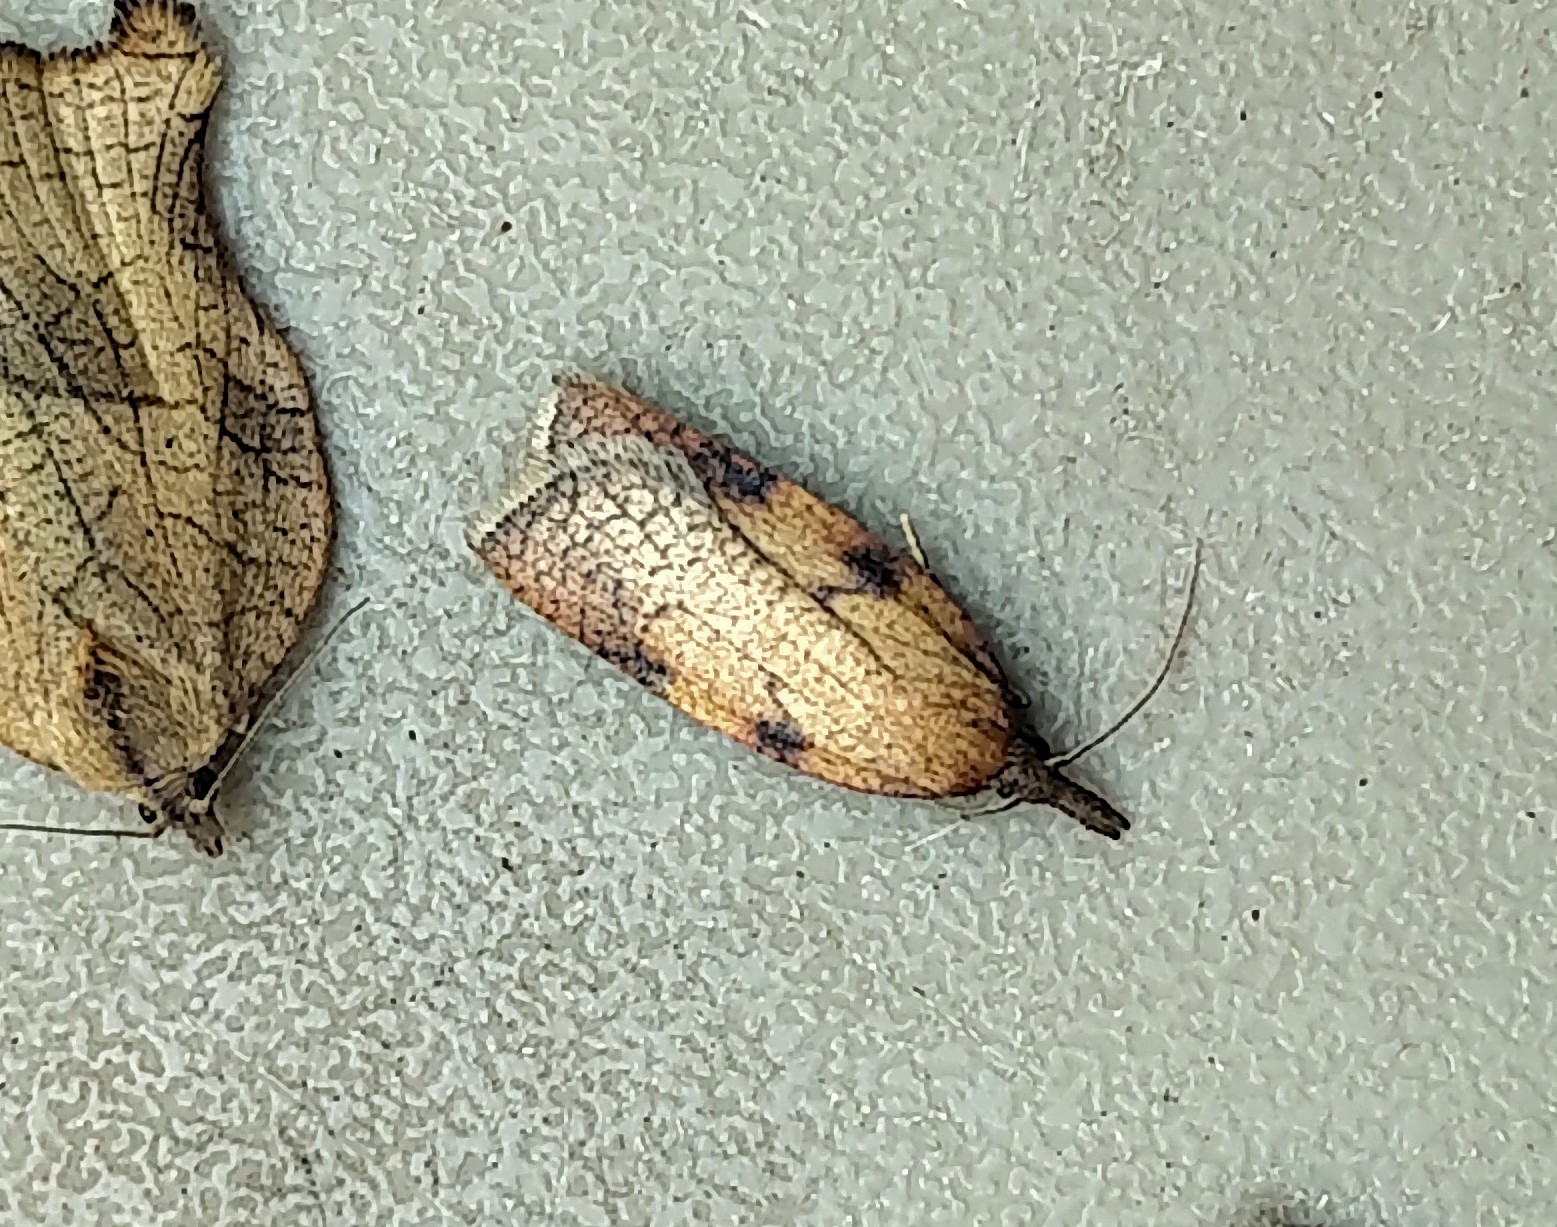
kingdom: Animalia
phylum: Arthropoda
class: Insecta
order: Lepidoptera
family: Tortricidae
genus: Sparganothis
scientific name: Sparganothis xanthoides
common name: Mosaic sparganothis moth
